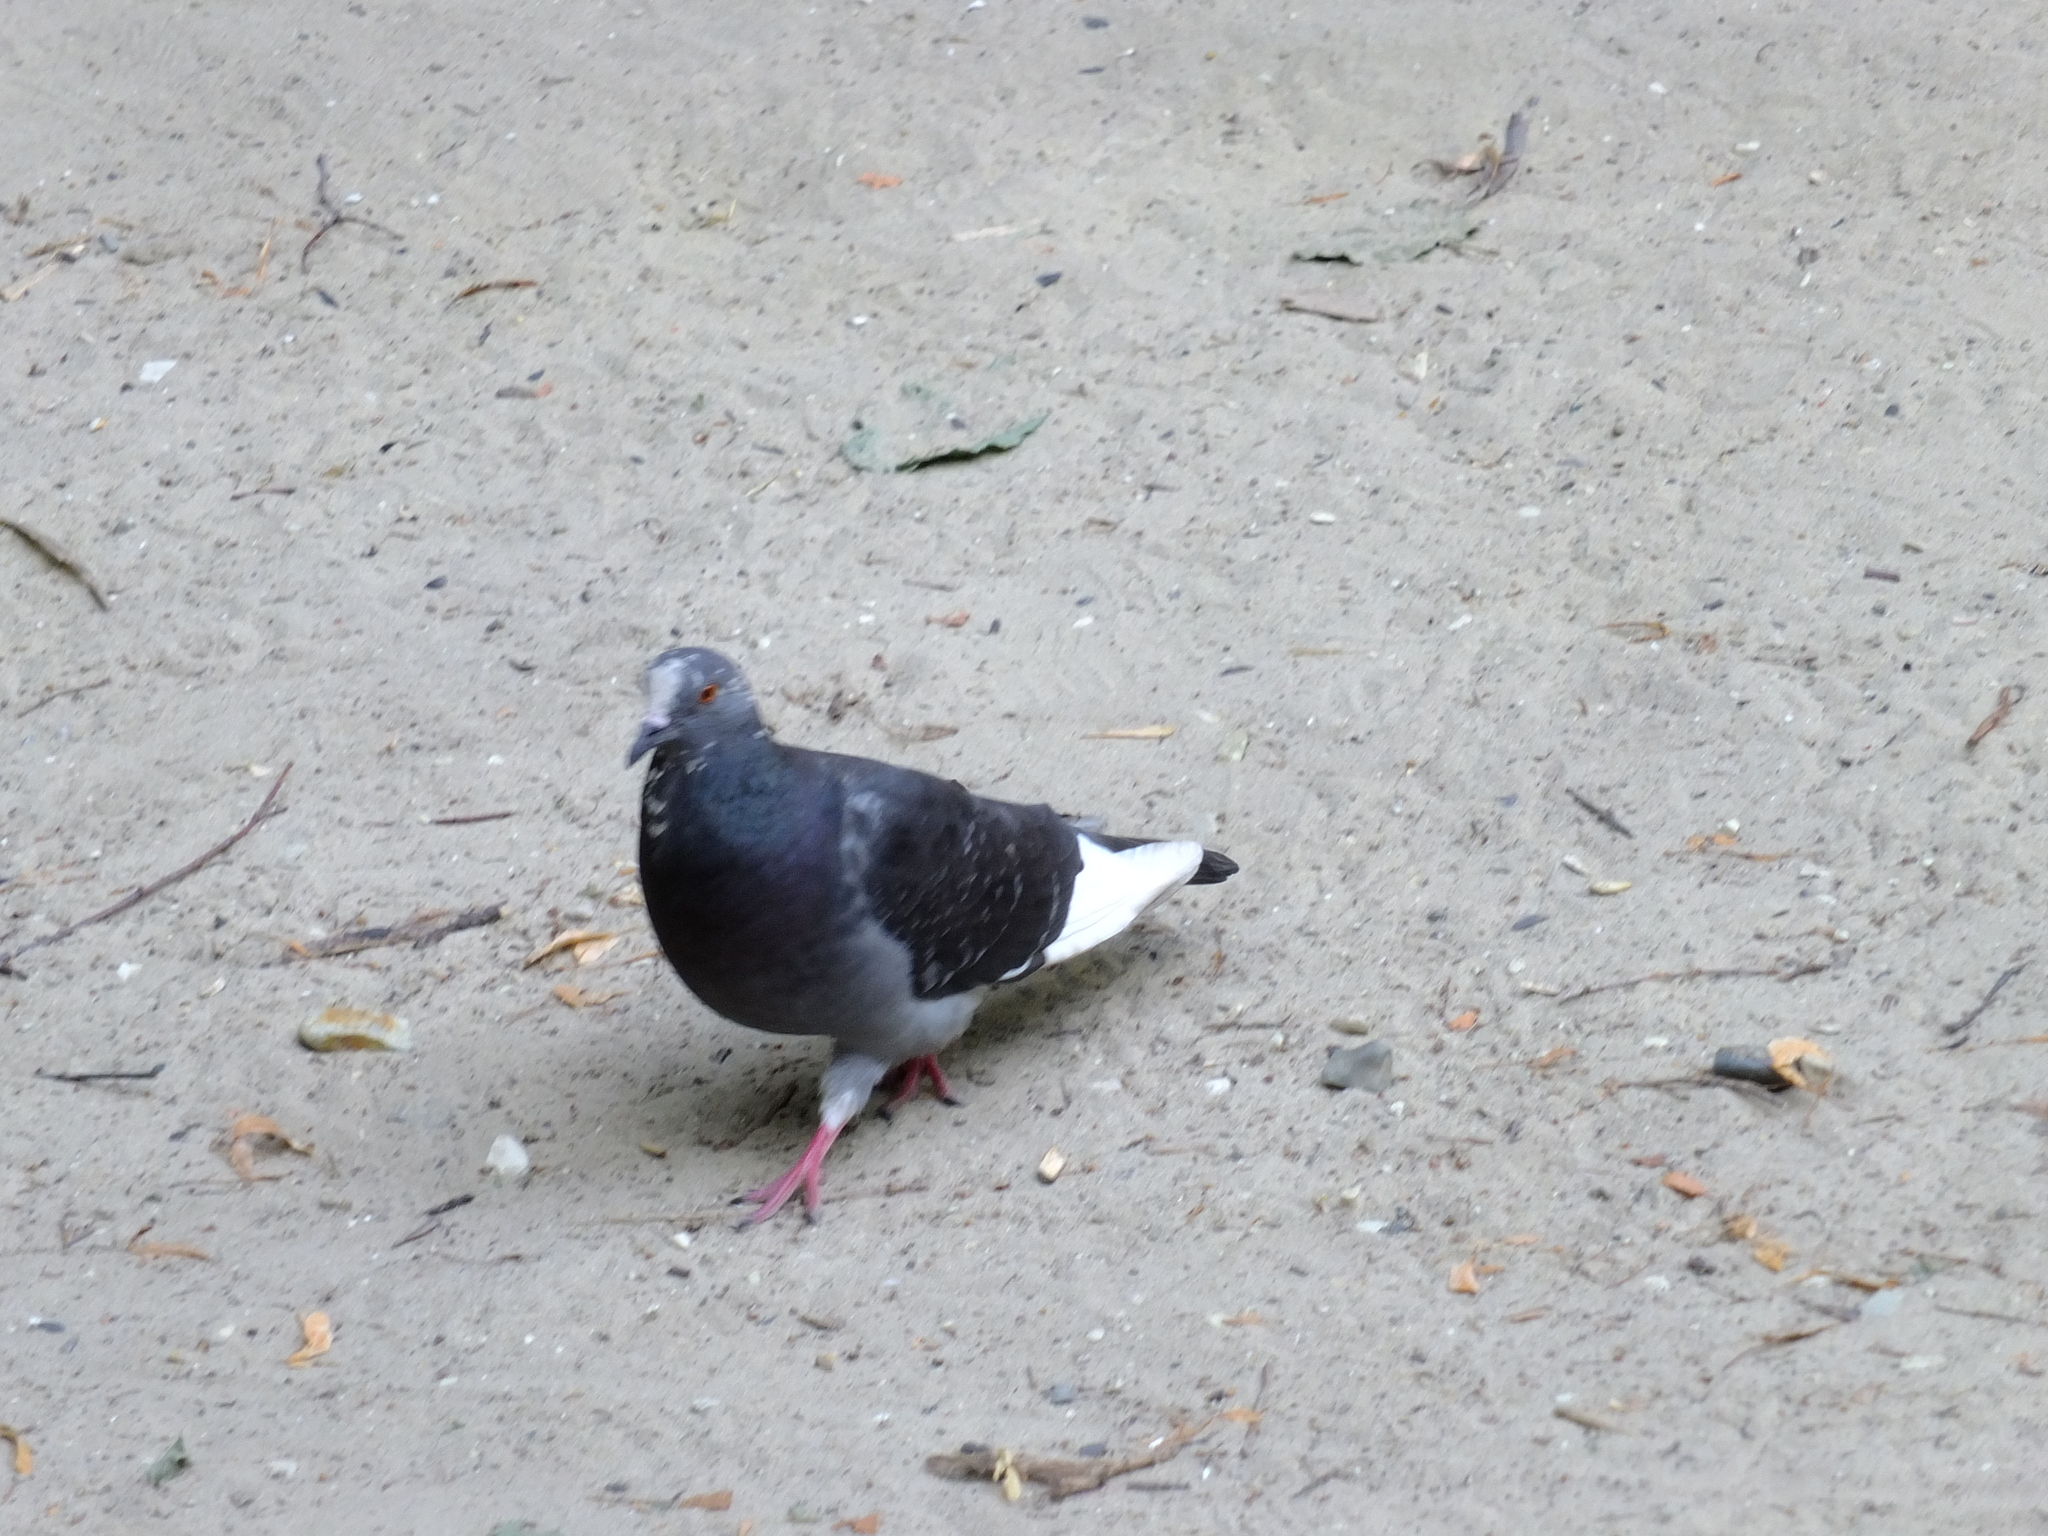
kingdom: Animalia
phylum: Chordata
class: Aves
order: Columbiformes
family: Columbidae
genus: Columba
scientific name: Columba livia
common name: Rock pigeon
